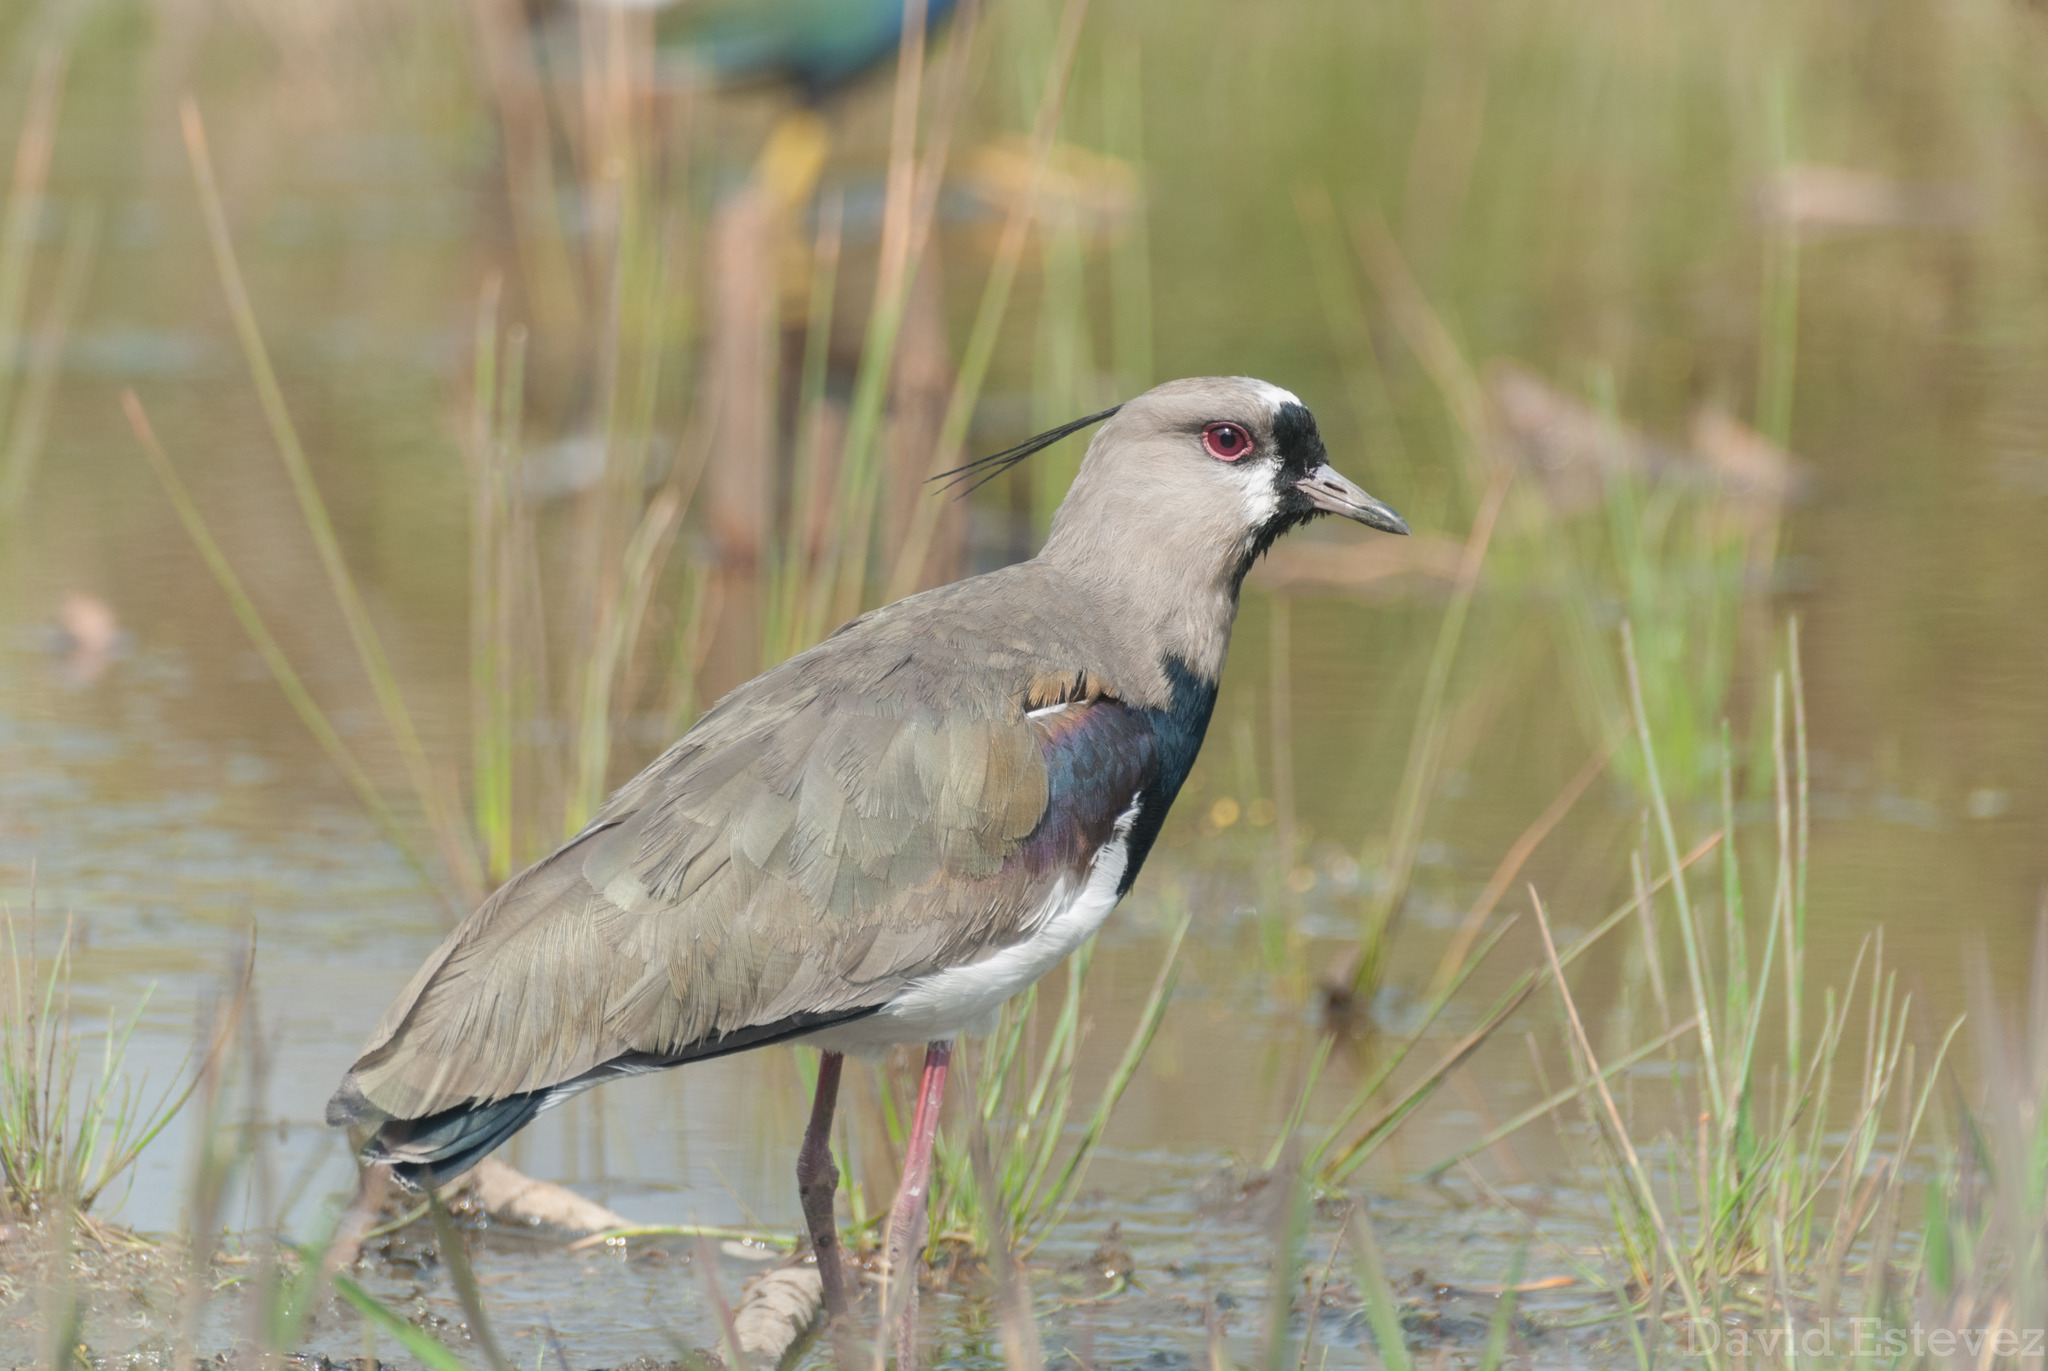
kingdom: Animalia
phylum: Chordata
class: Aves
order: Charadriiformes
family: Charadriidae
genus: Vanellus
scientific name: Vanellus chilensis
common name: Southern lapwing
